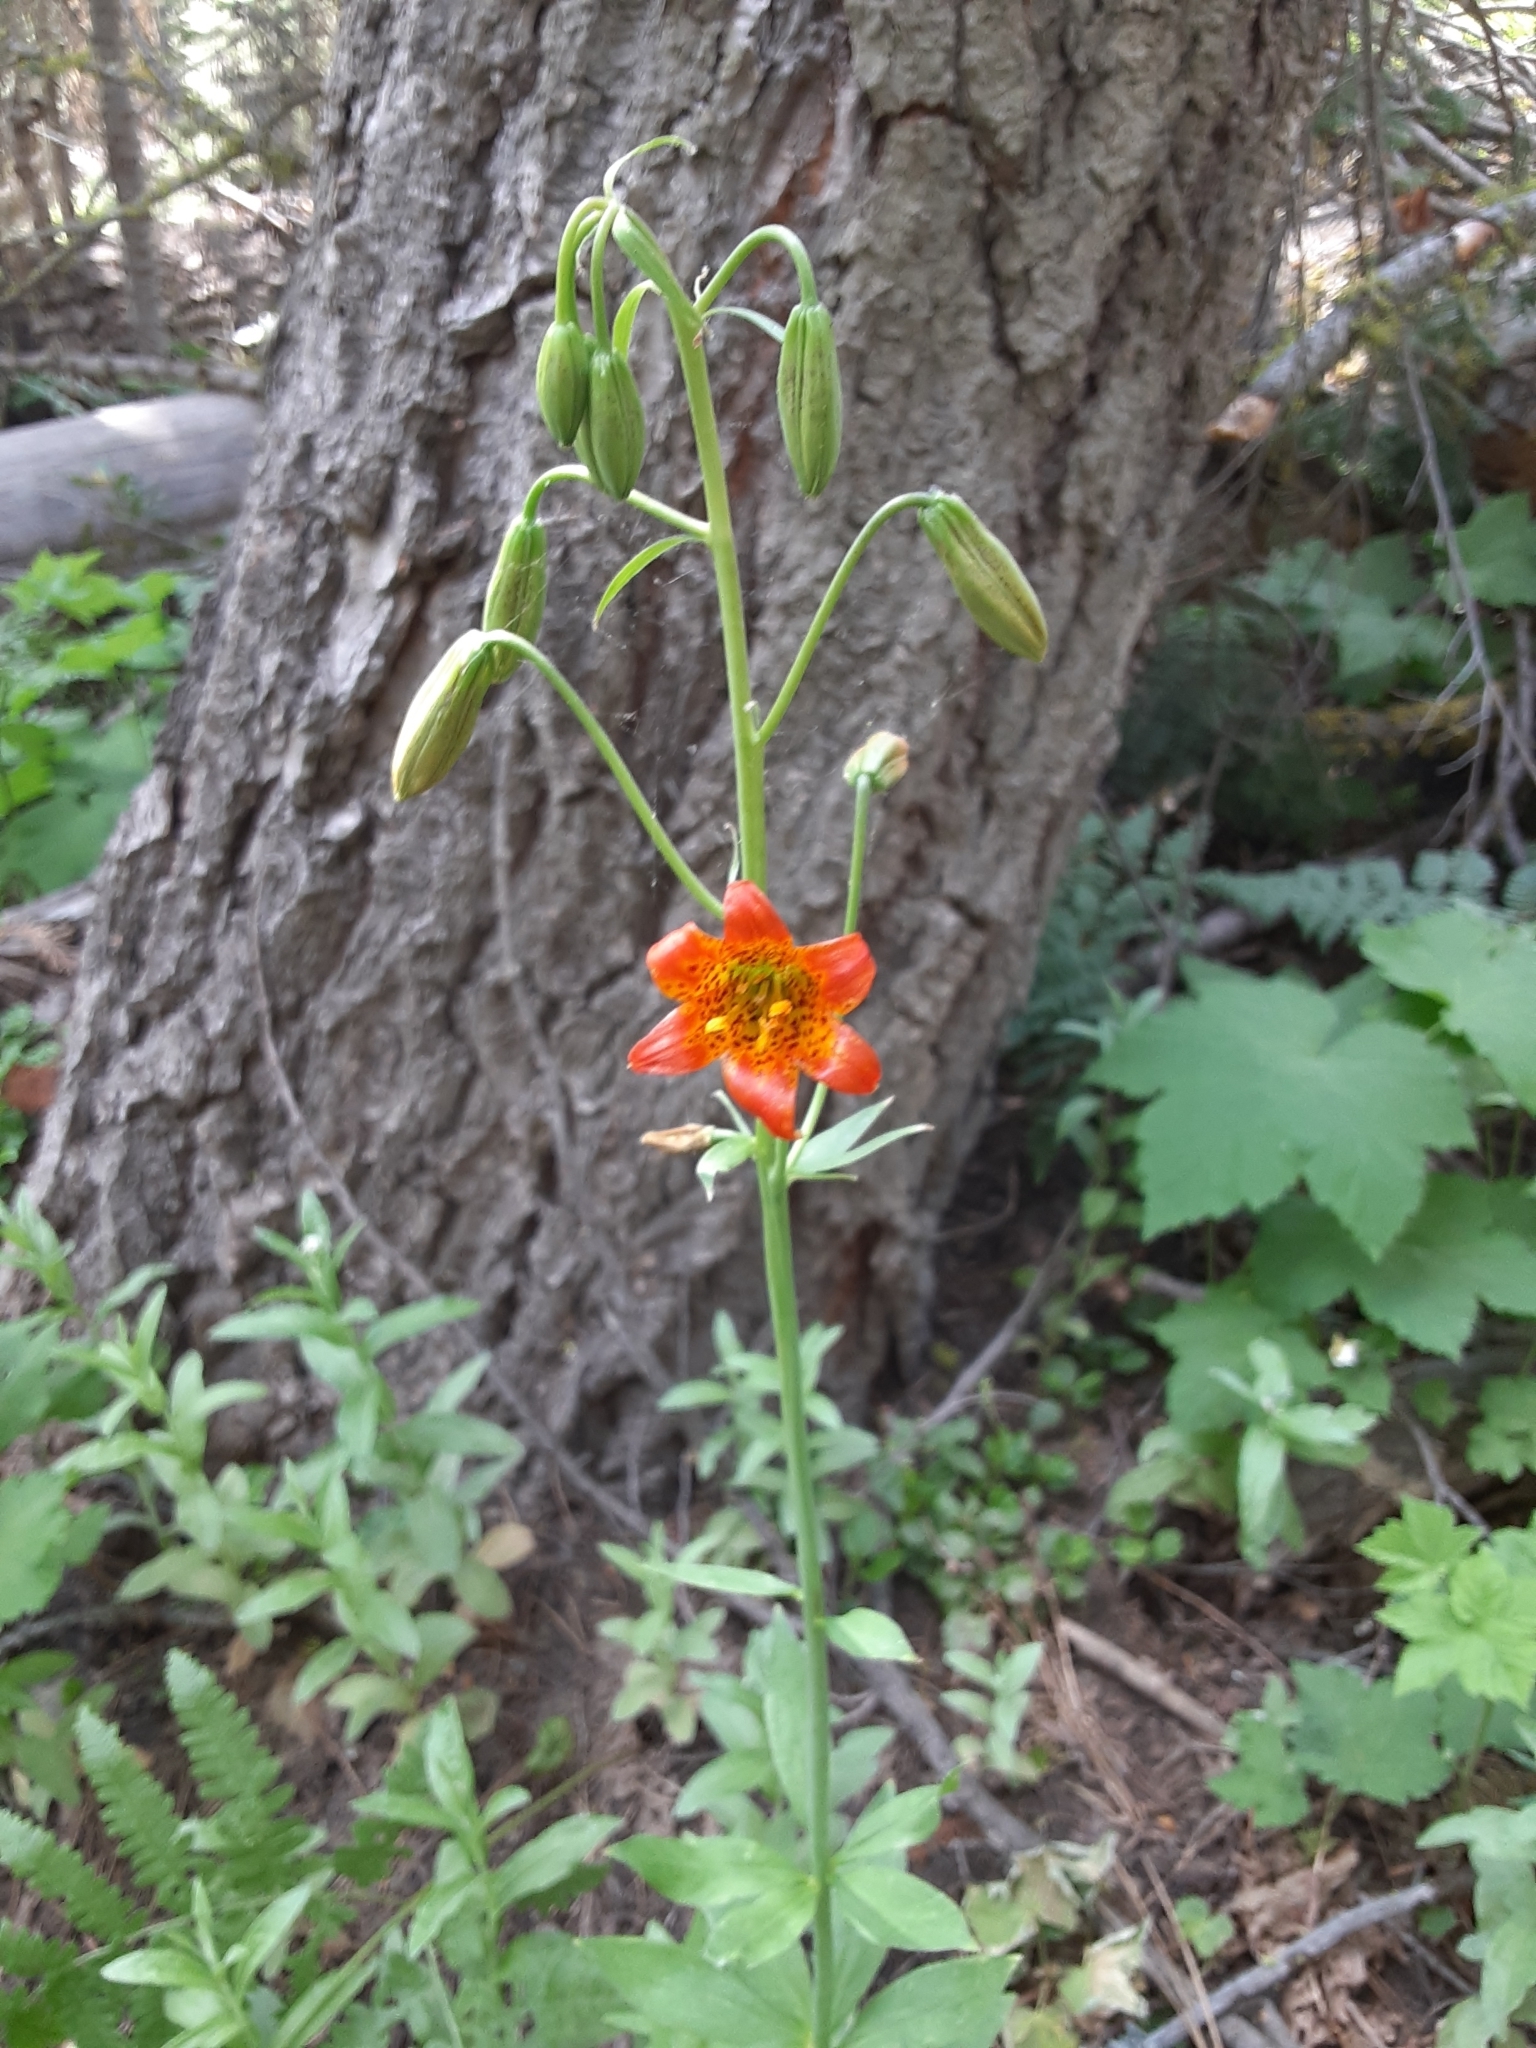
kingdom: Plantae
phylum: Tracheophyta
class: Liliopsida
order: Liliales
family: Liliaceae
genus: Lilium
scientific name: Lilium parvum
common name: Alpine lily
